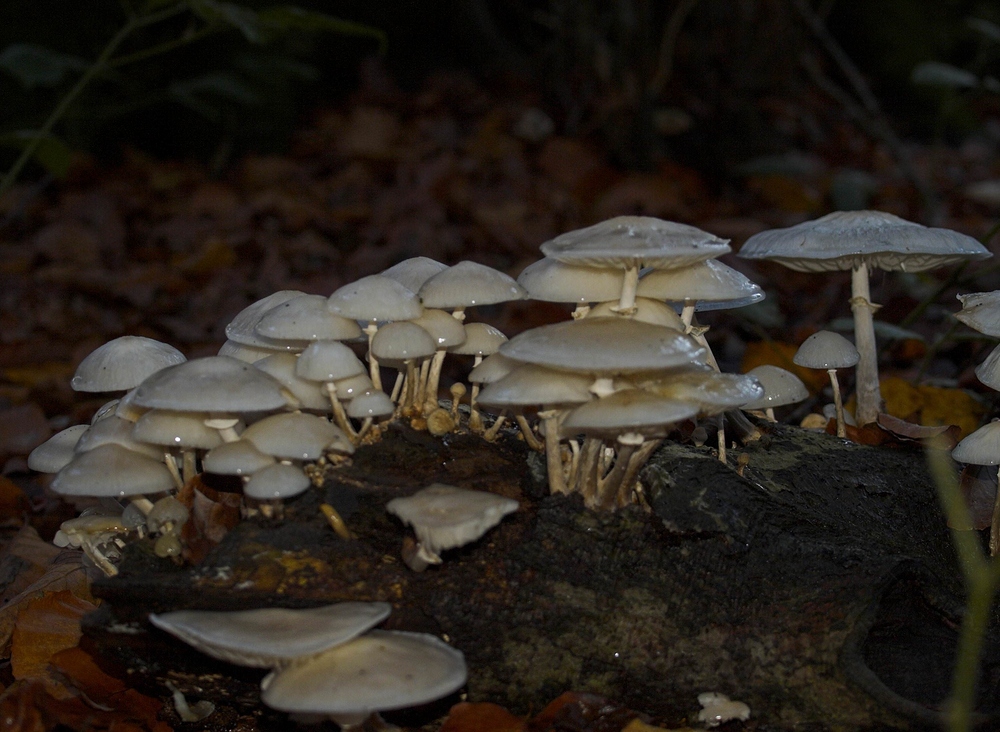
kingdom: Fungi
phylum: Basidiomycota
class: Agaricomycetes
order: Agaricales
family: Physalacriaceae
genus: Mucidula
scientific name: Mucidula mucida
